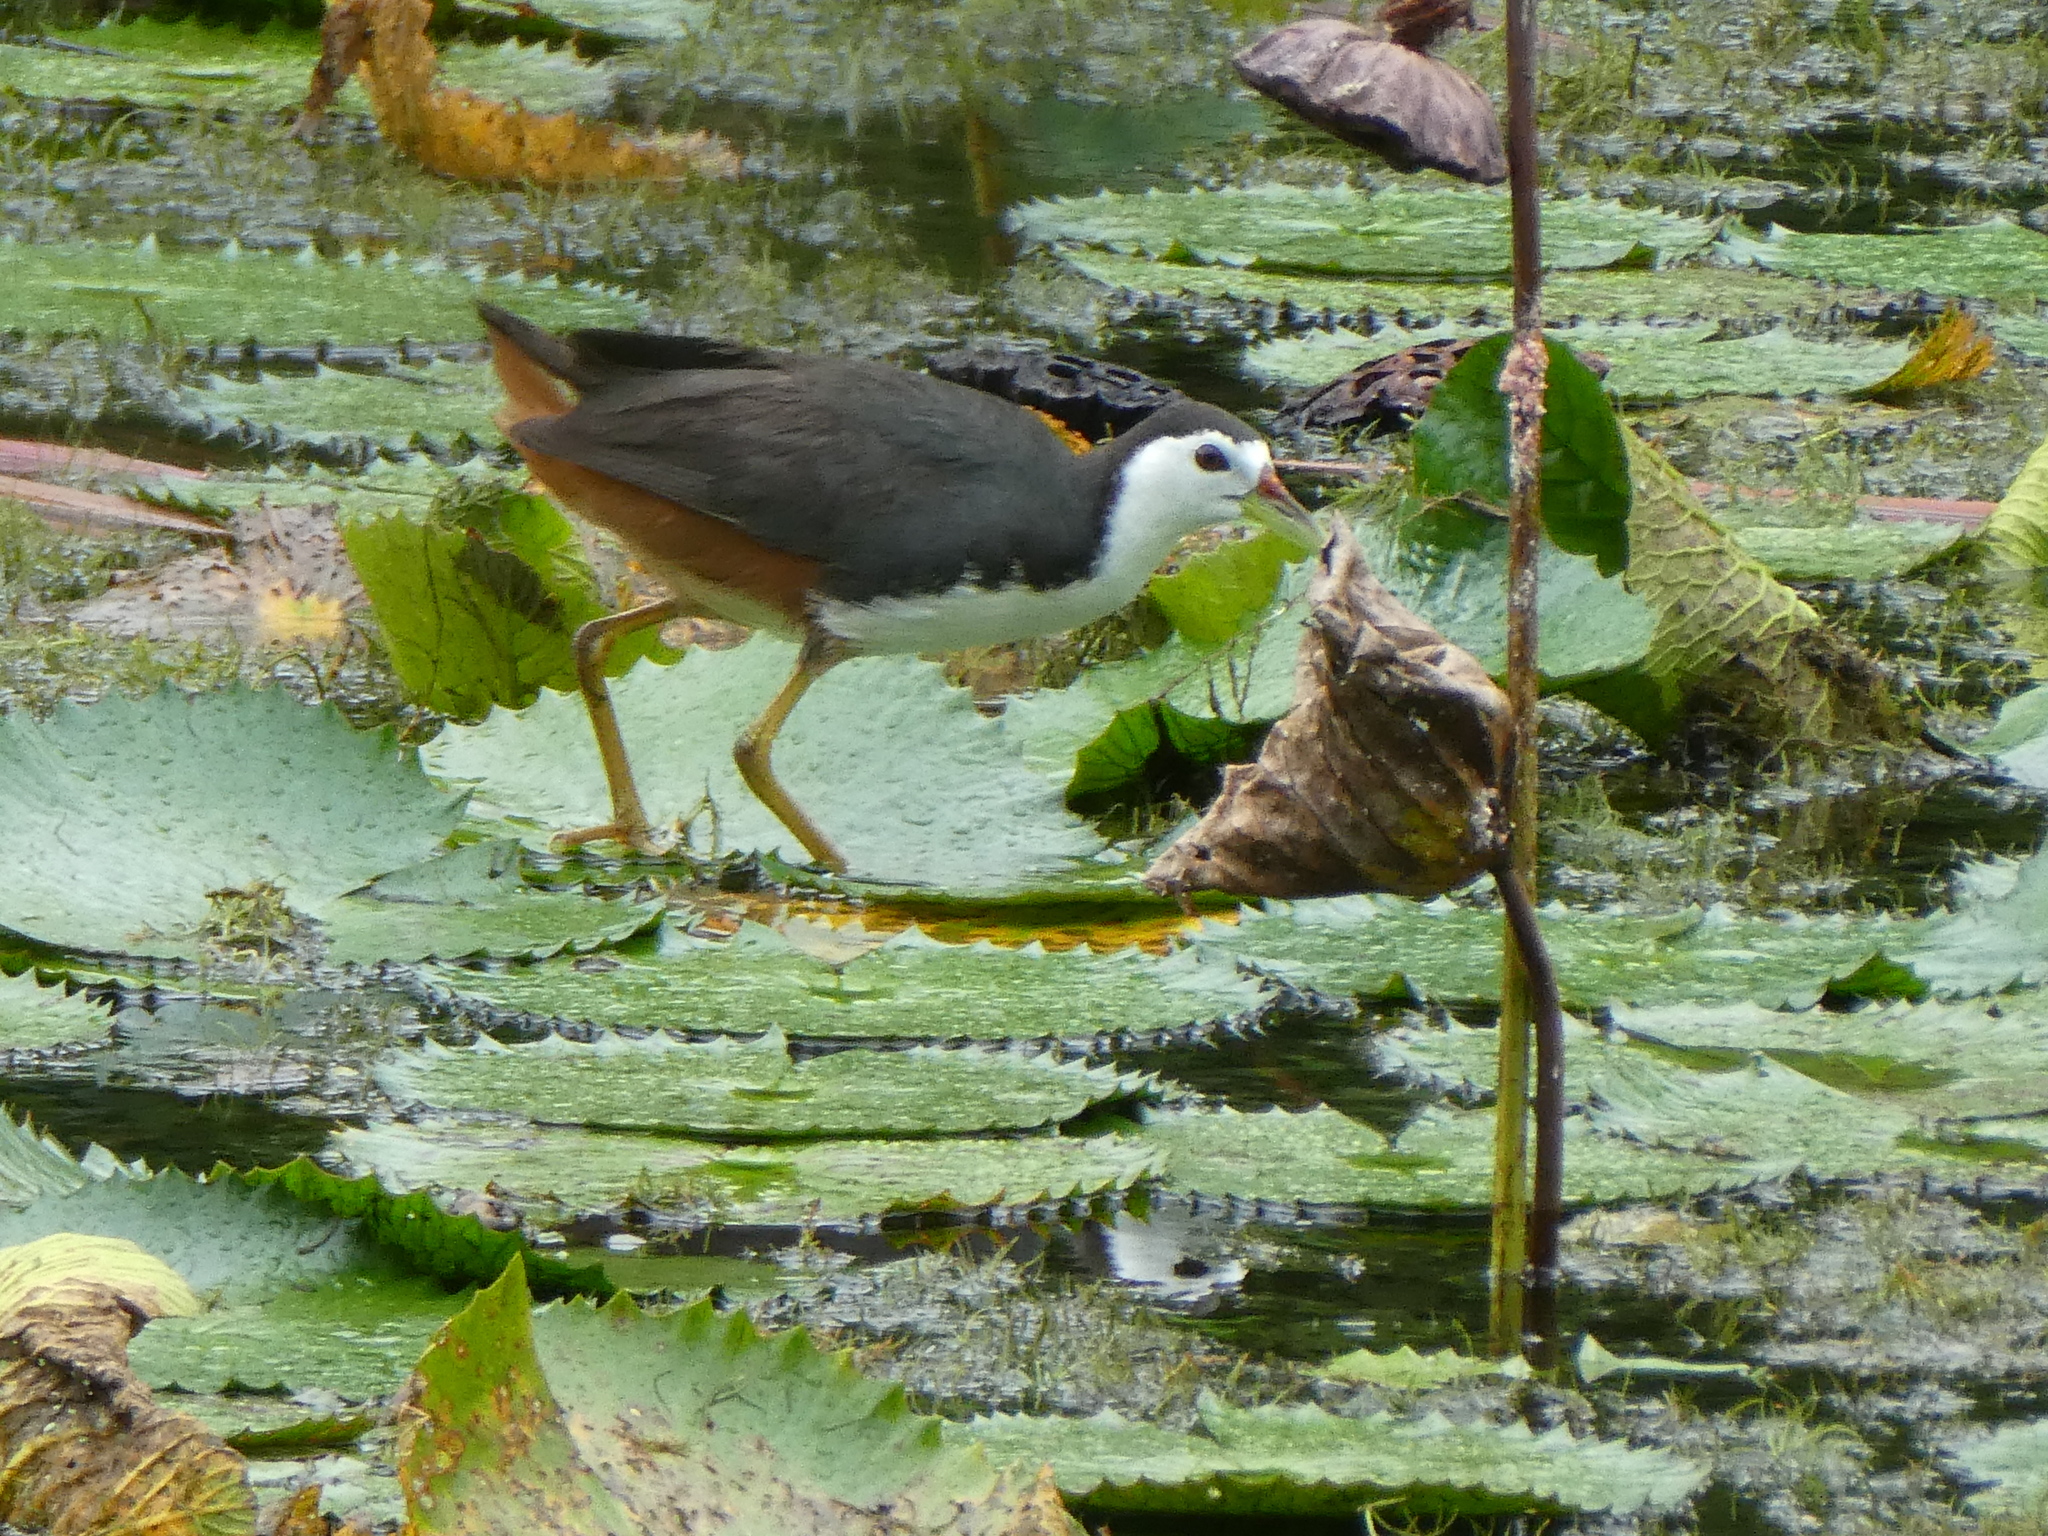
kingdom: Animalia
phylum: Chordata
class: Aves
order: Gruiformes
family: Rallidae
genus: Amaurornis
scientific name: Amaurornis phoenicurus
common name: White-breasted waterhen
